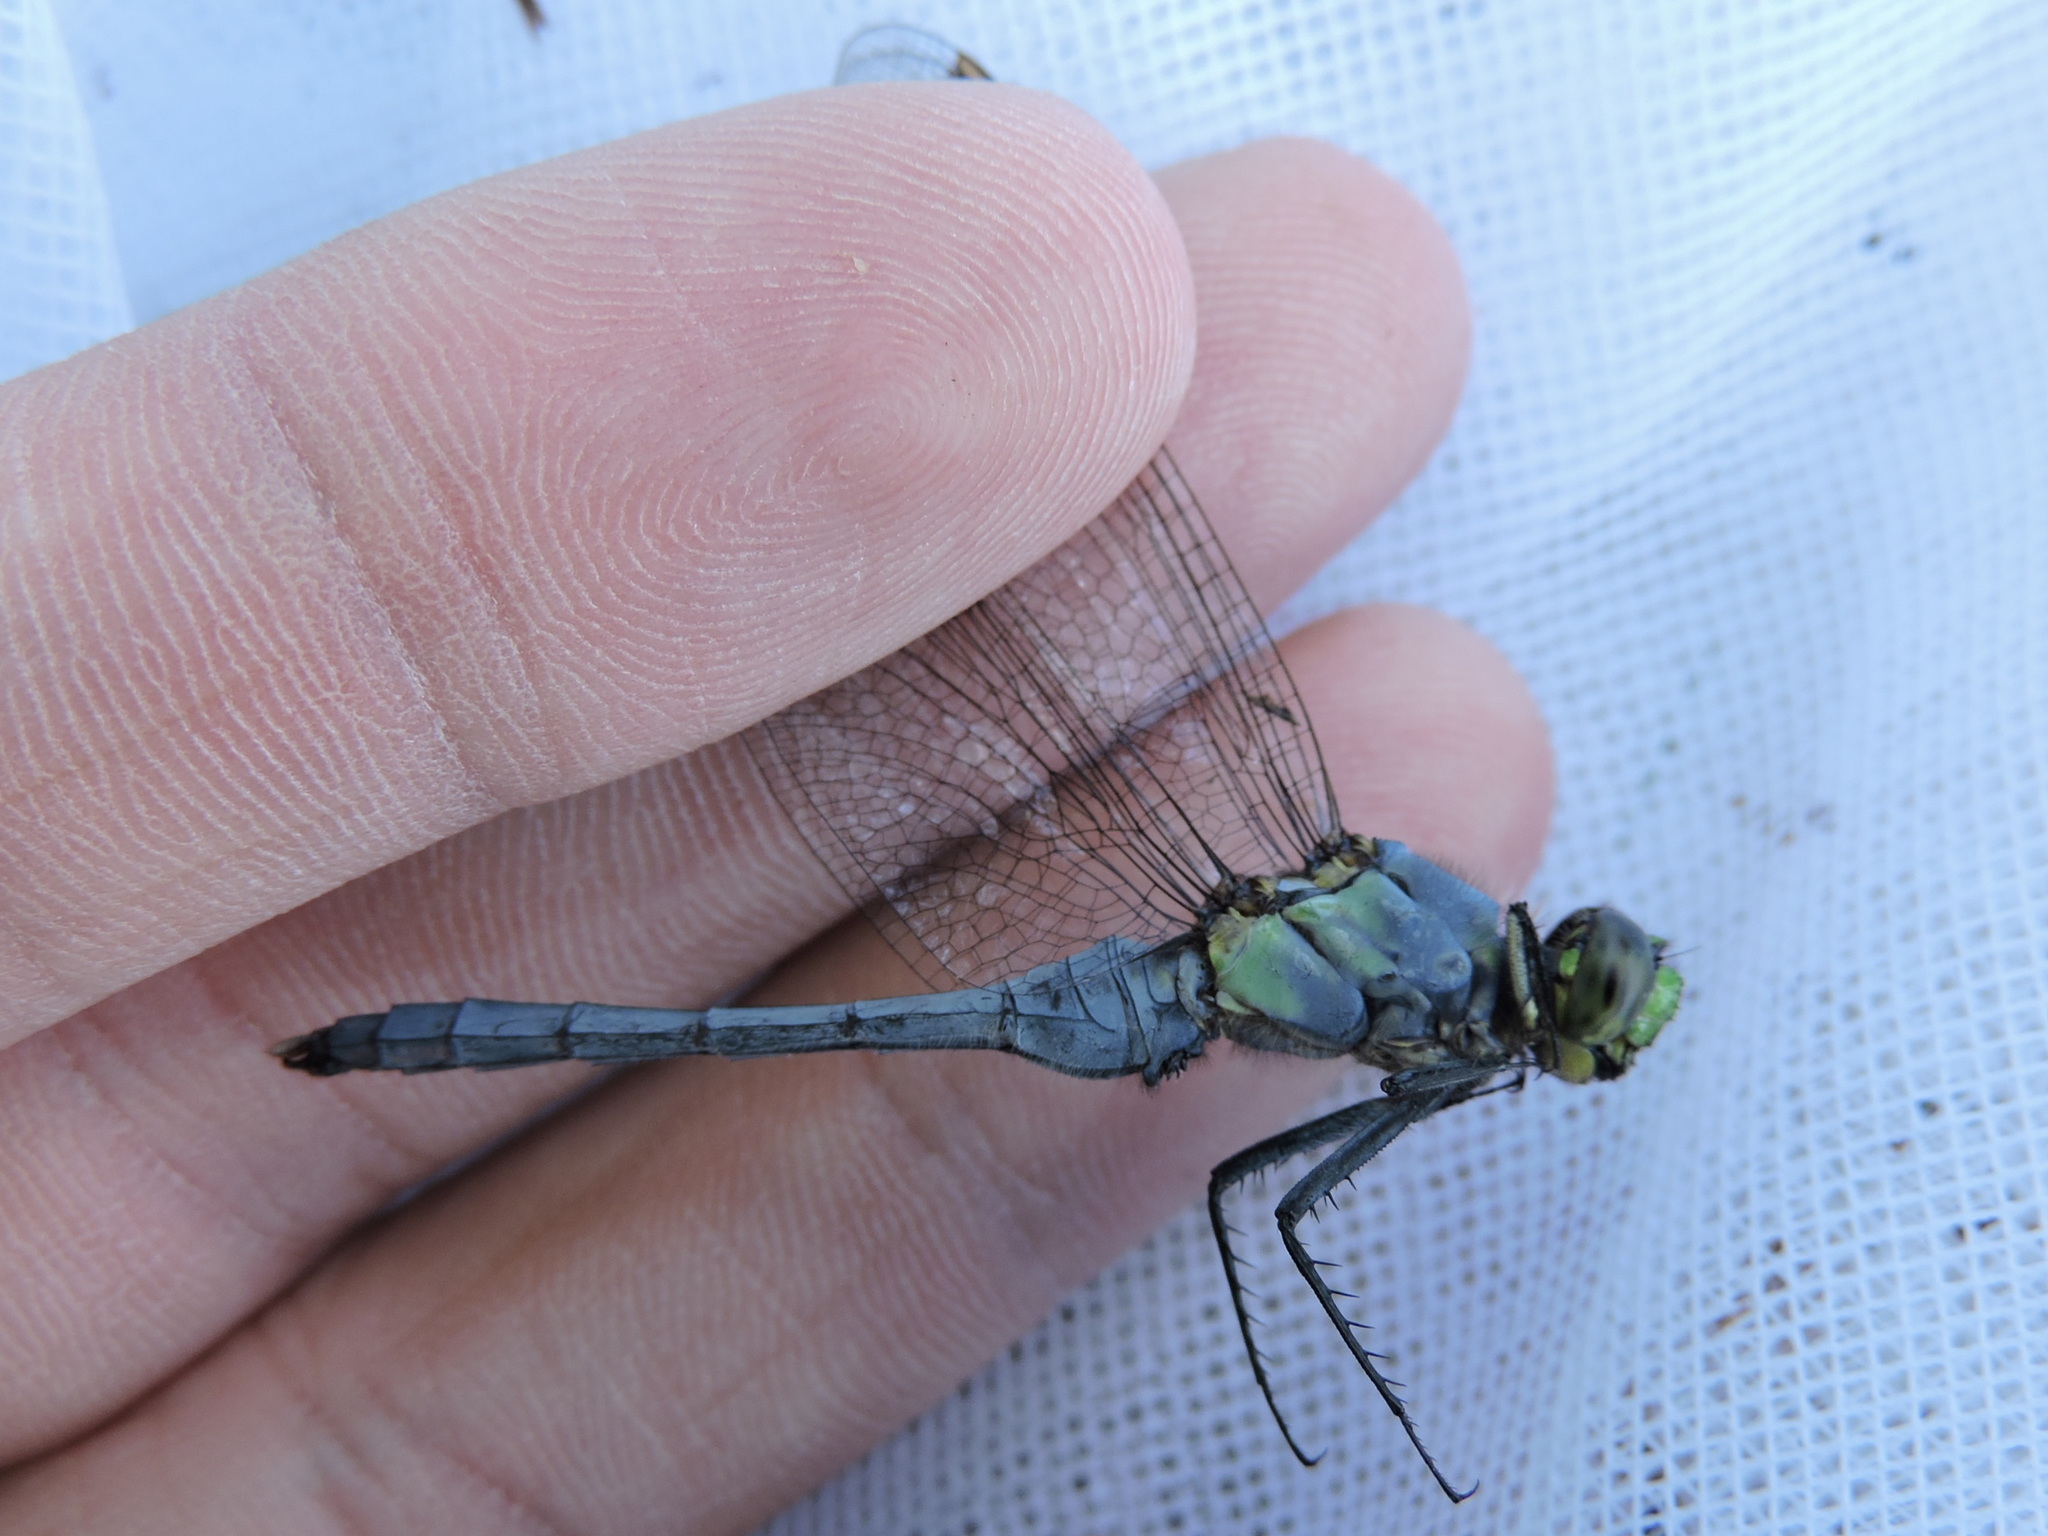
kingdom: Animalia
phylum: Arthropoda
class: Insecta
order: Odonata
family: Libellulidae
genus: Erythemis
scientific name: Erythemis simplicicollis
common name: Eastern pondhawk
